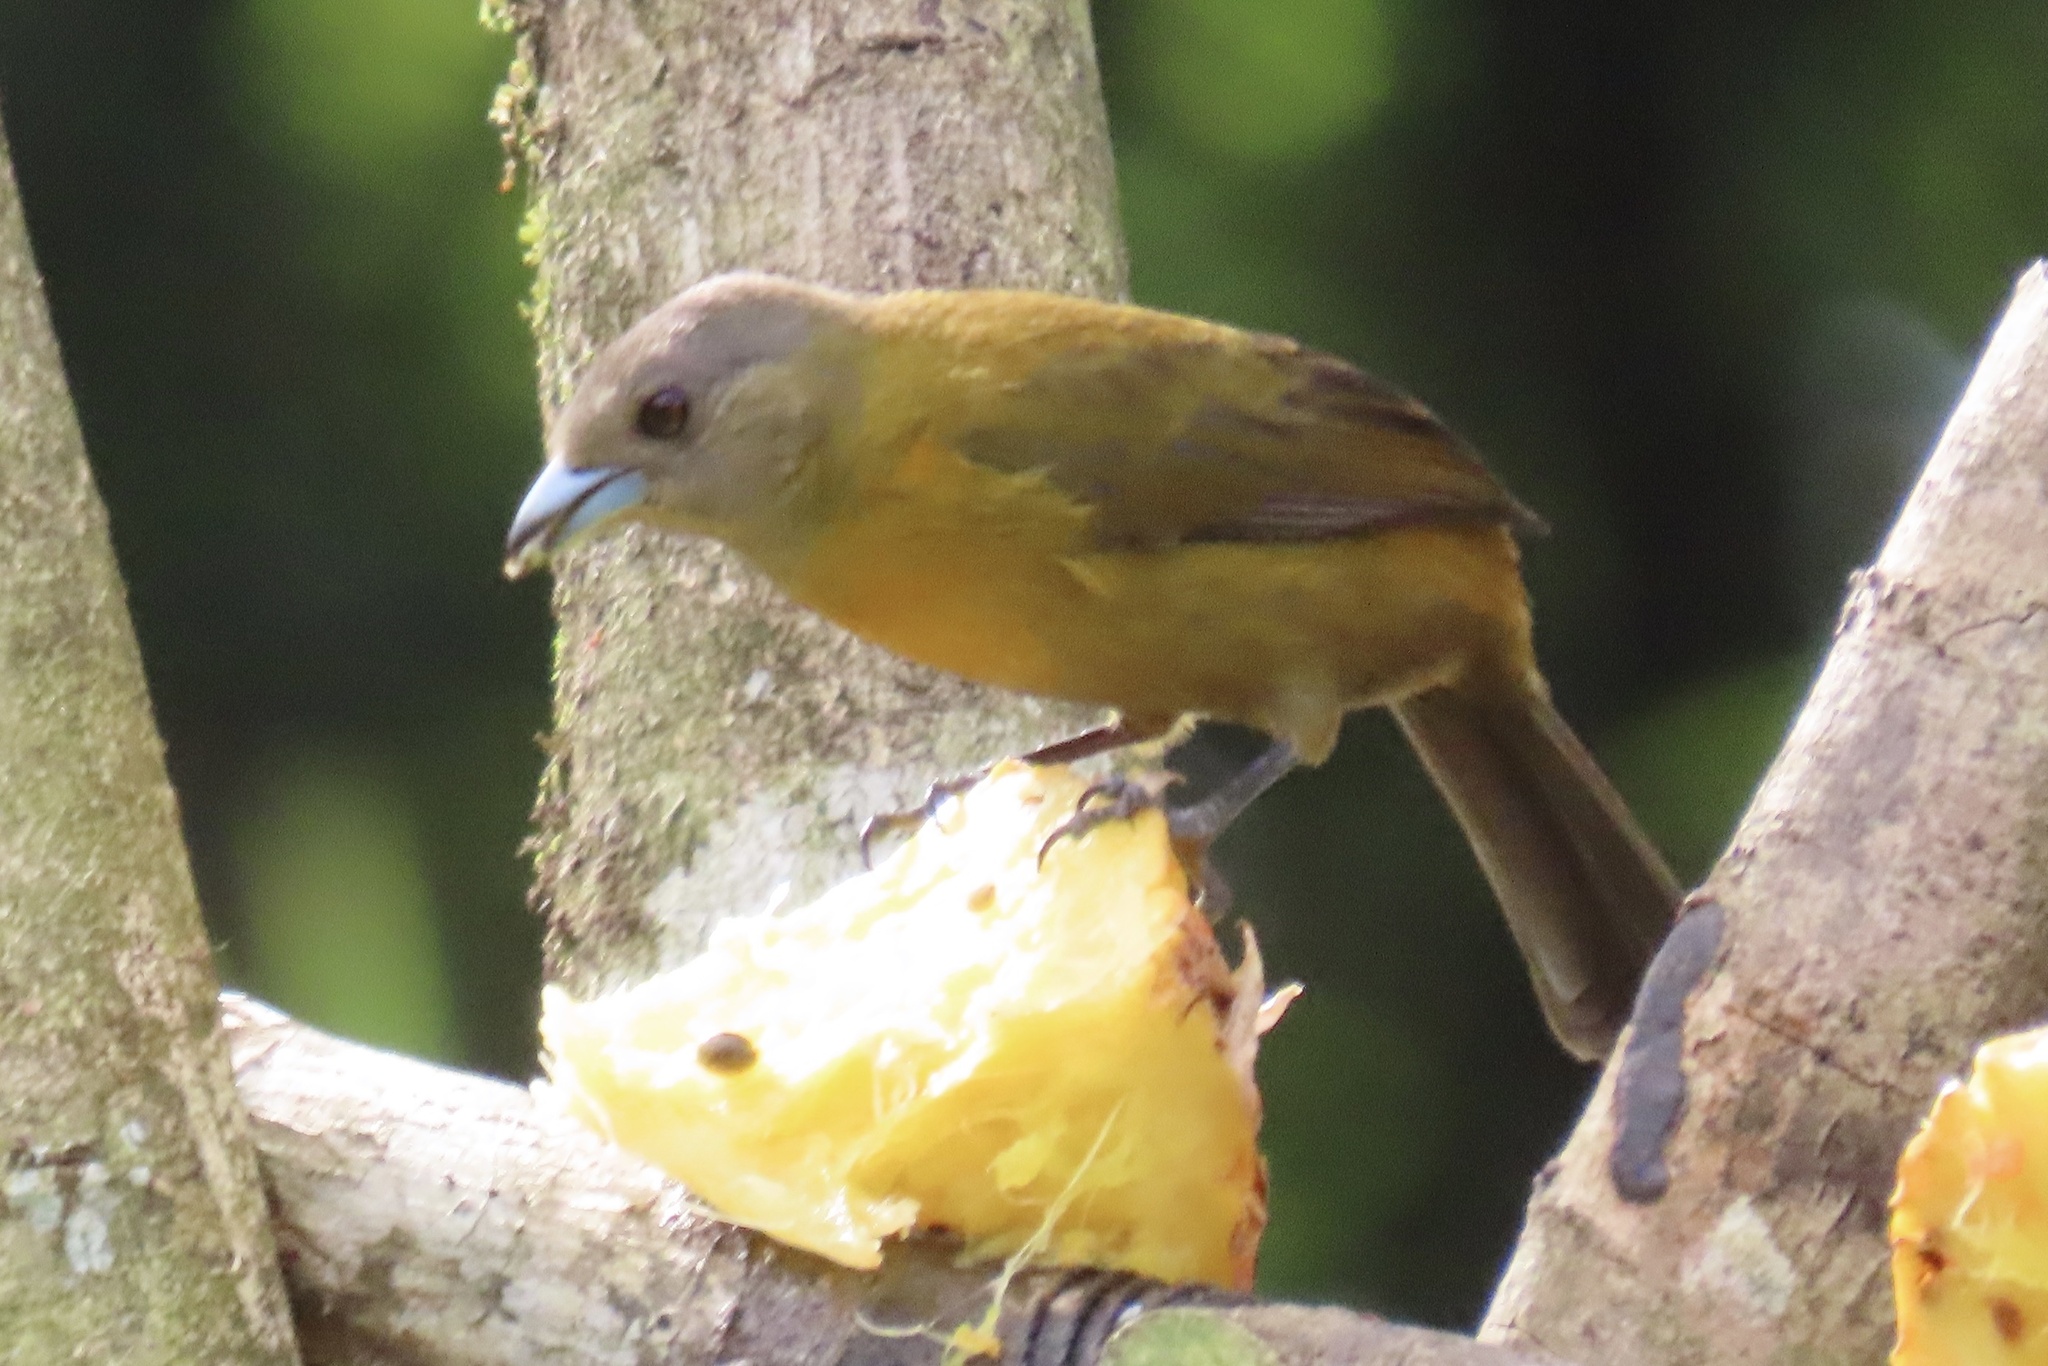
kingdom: Animalia
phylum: Chordata
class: Aves
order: Passeriformes
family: Thraupidae
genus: Ramphocelus
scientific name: Ramphocelus passerinii
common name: Passerini's tanager
